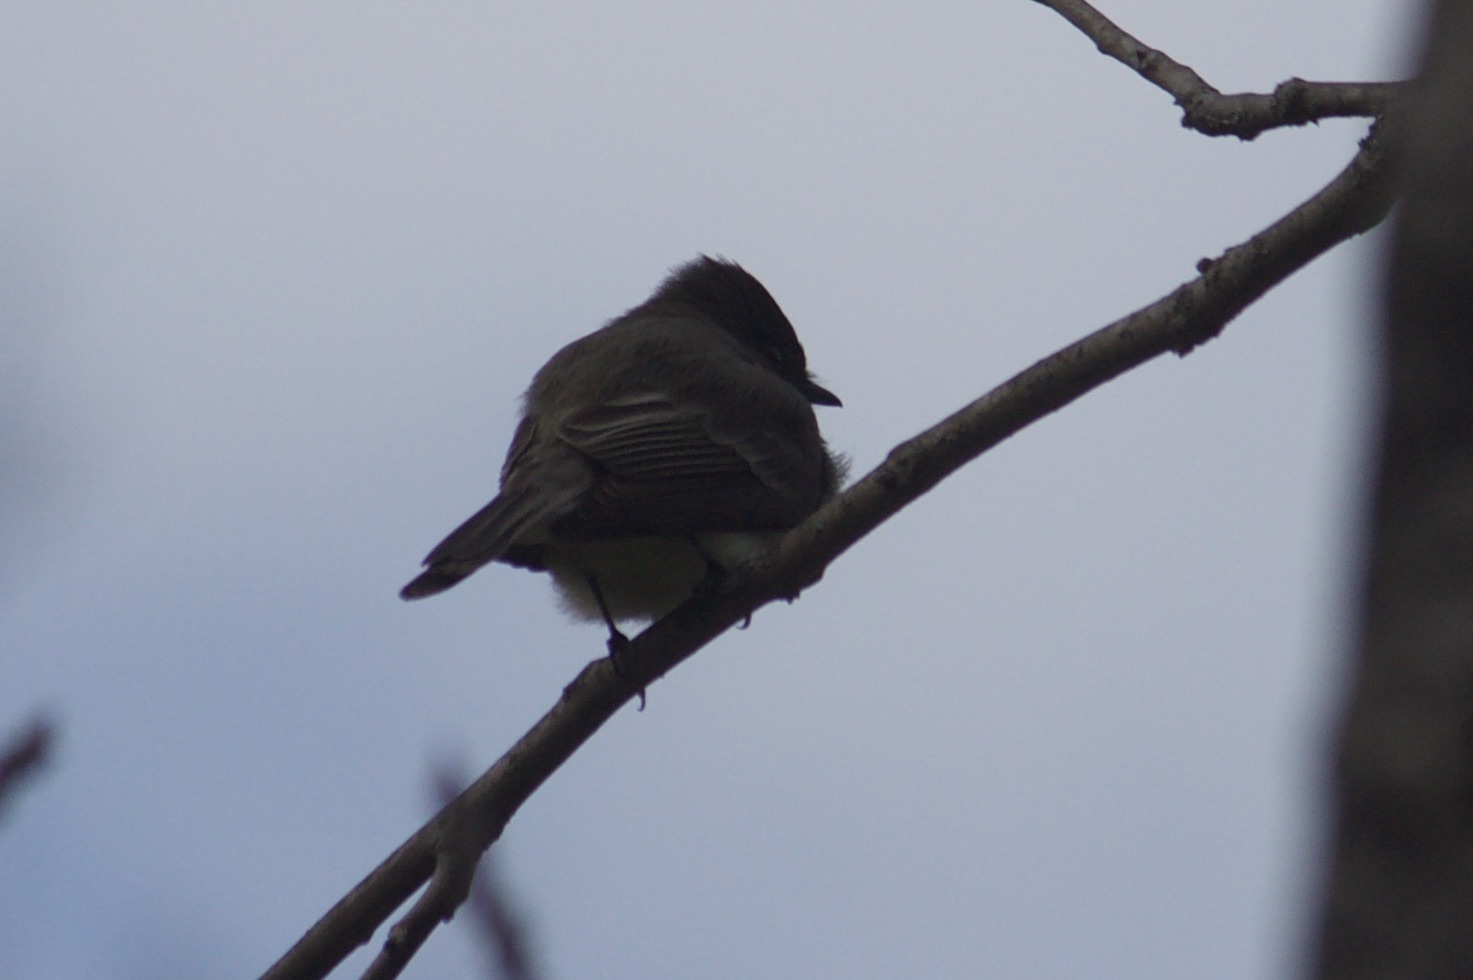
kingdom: Animalia
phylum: Chordata
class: Aves
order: Passeriformes
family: Tyrannidae
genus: Sayornis
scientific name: Sayornis phoebe
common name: Eastern phoebe
